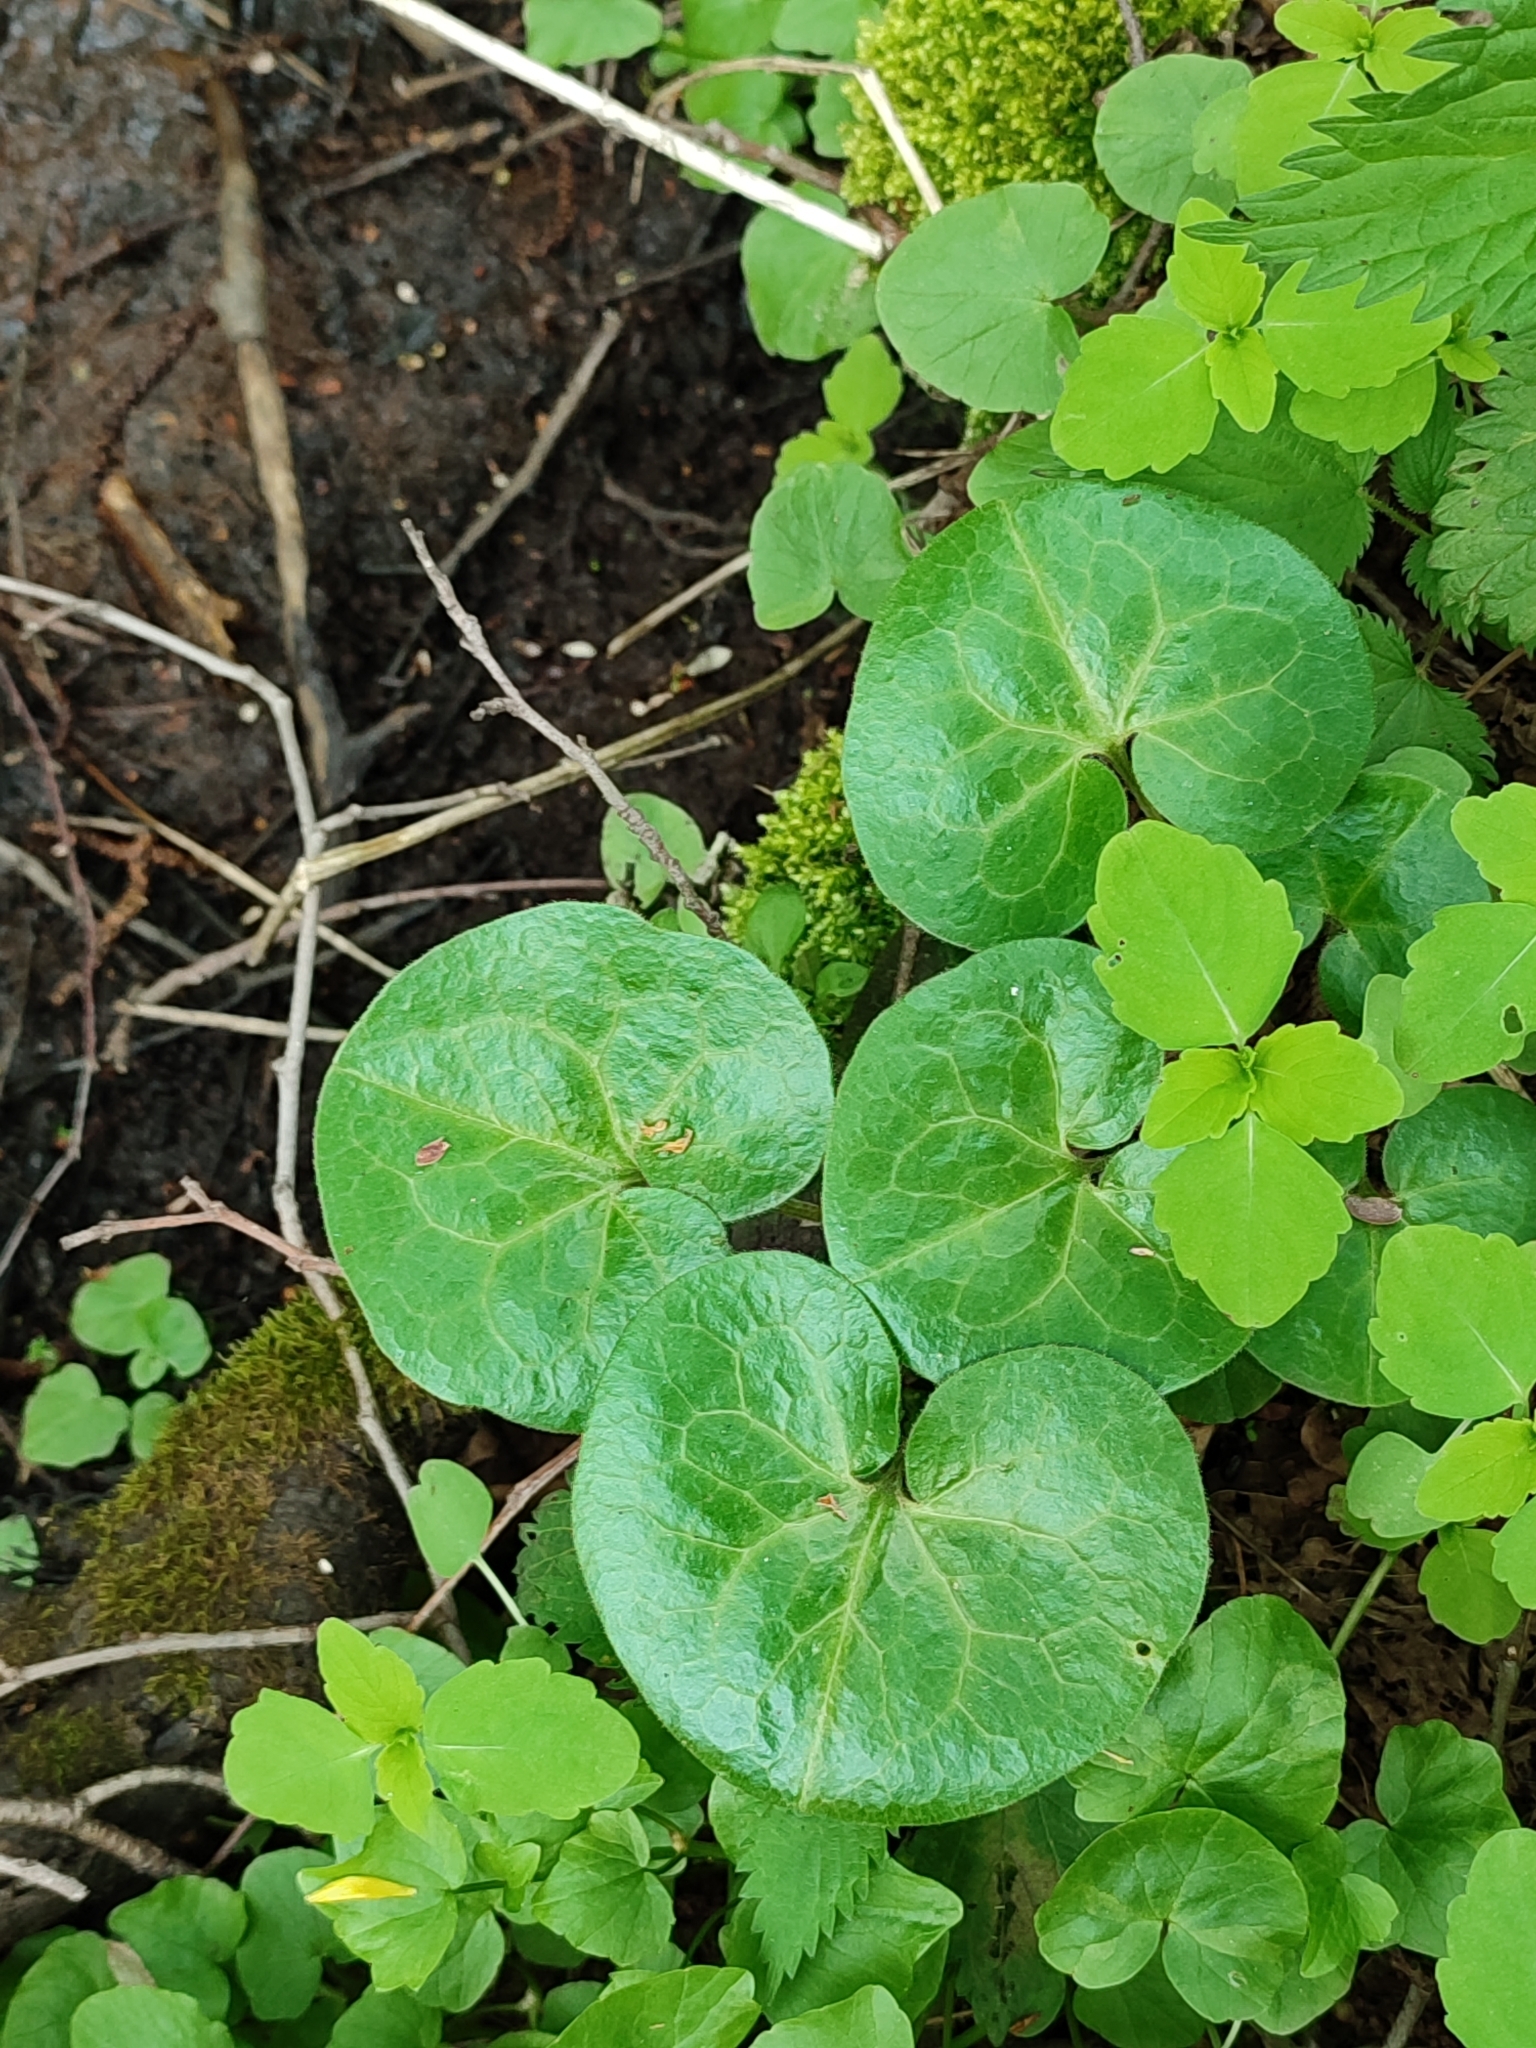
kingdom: Plantae
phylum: Tracheophyta
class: Magnoliopsida
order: Piperales
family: Aristolochiaceae
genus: Asarum
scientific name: Asarum europaeum
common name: Asarabacca
